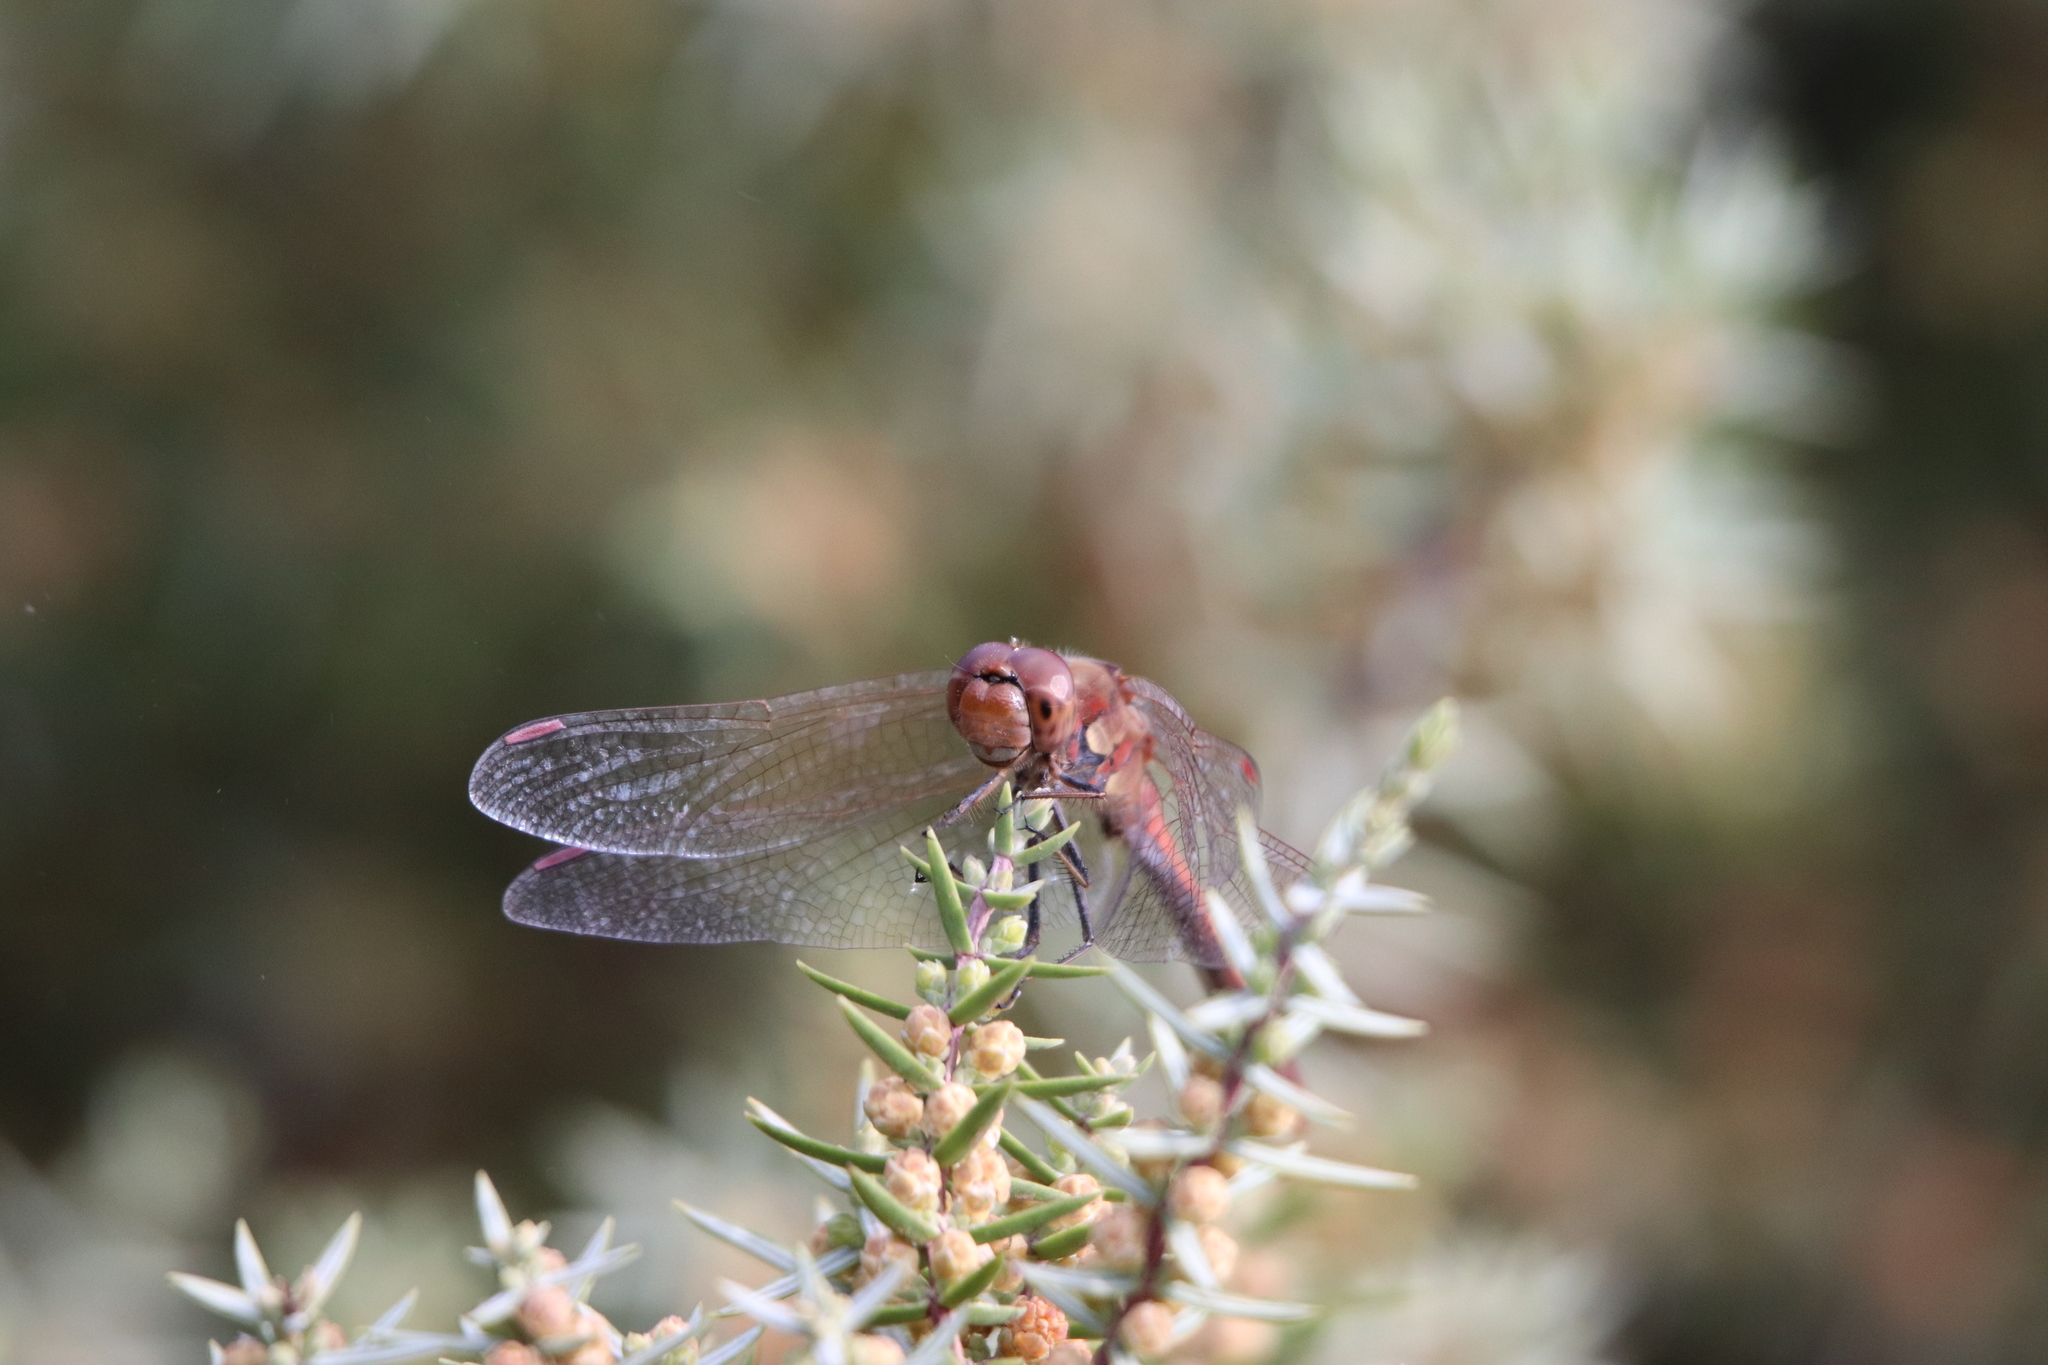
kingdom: Animalia
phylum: Arthropoda
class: Insecta
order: Odonata
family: Libellulidae
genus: Sympetrum
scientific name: Sympetrum striolatum
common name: Common darter
